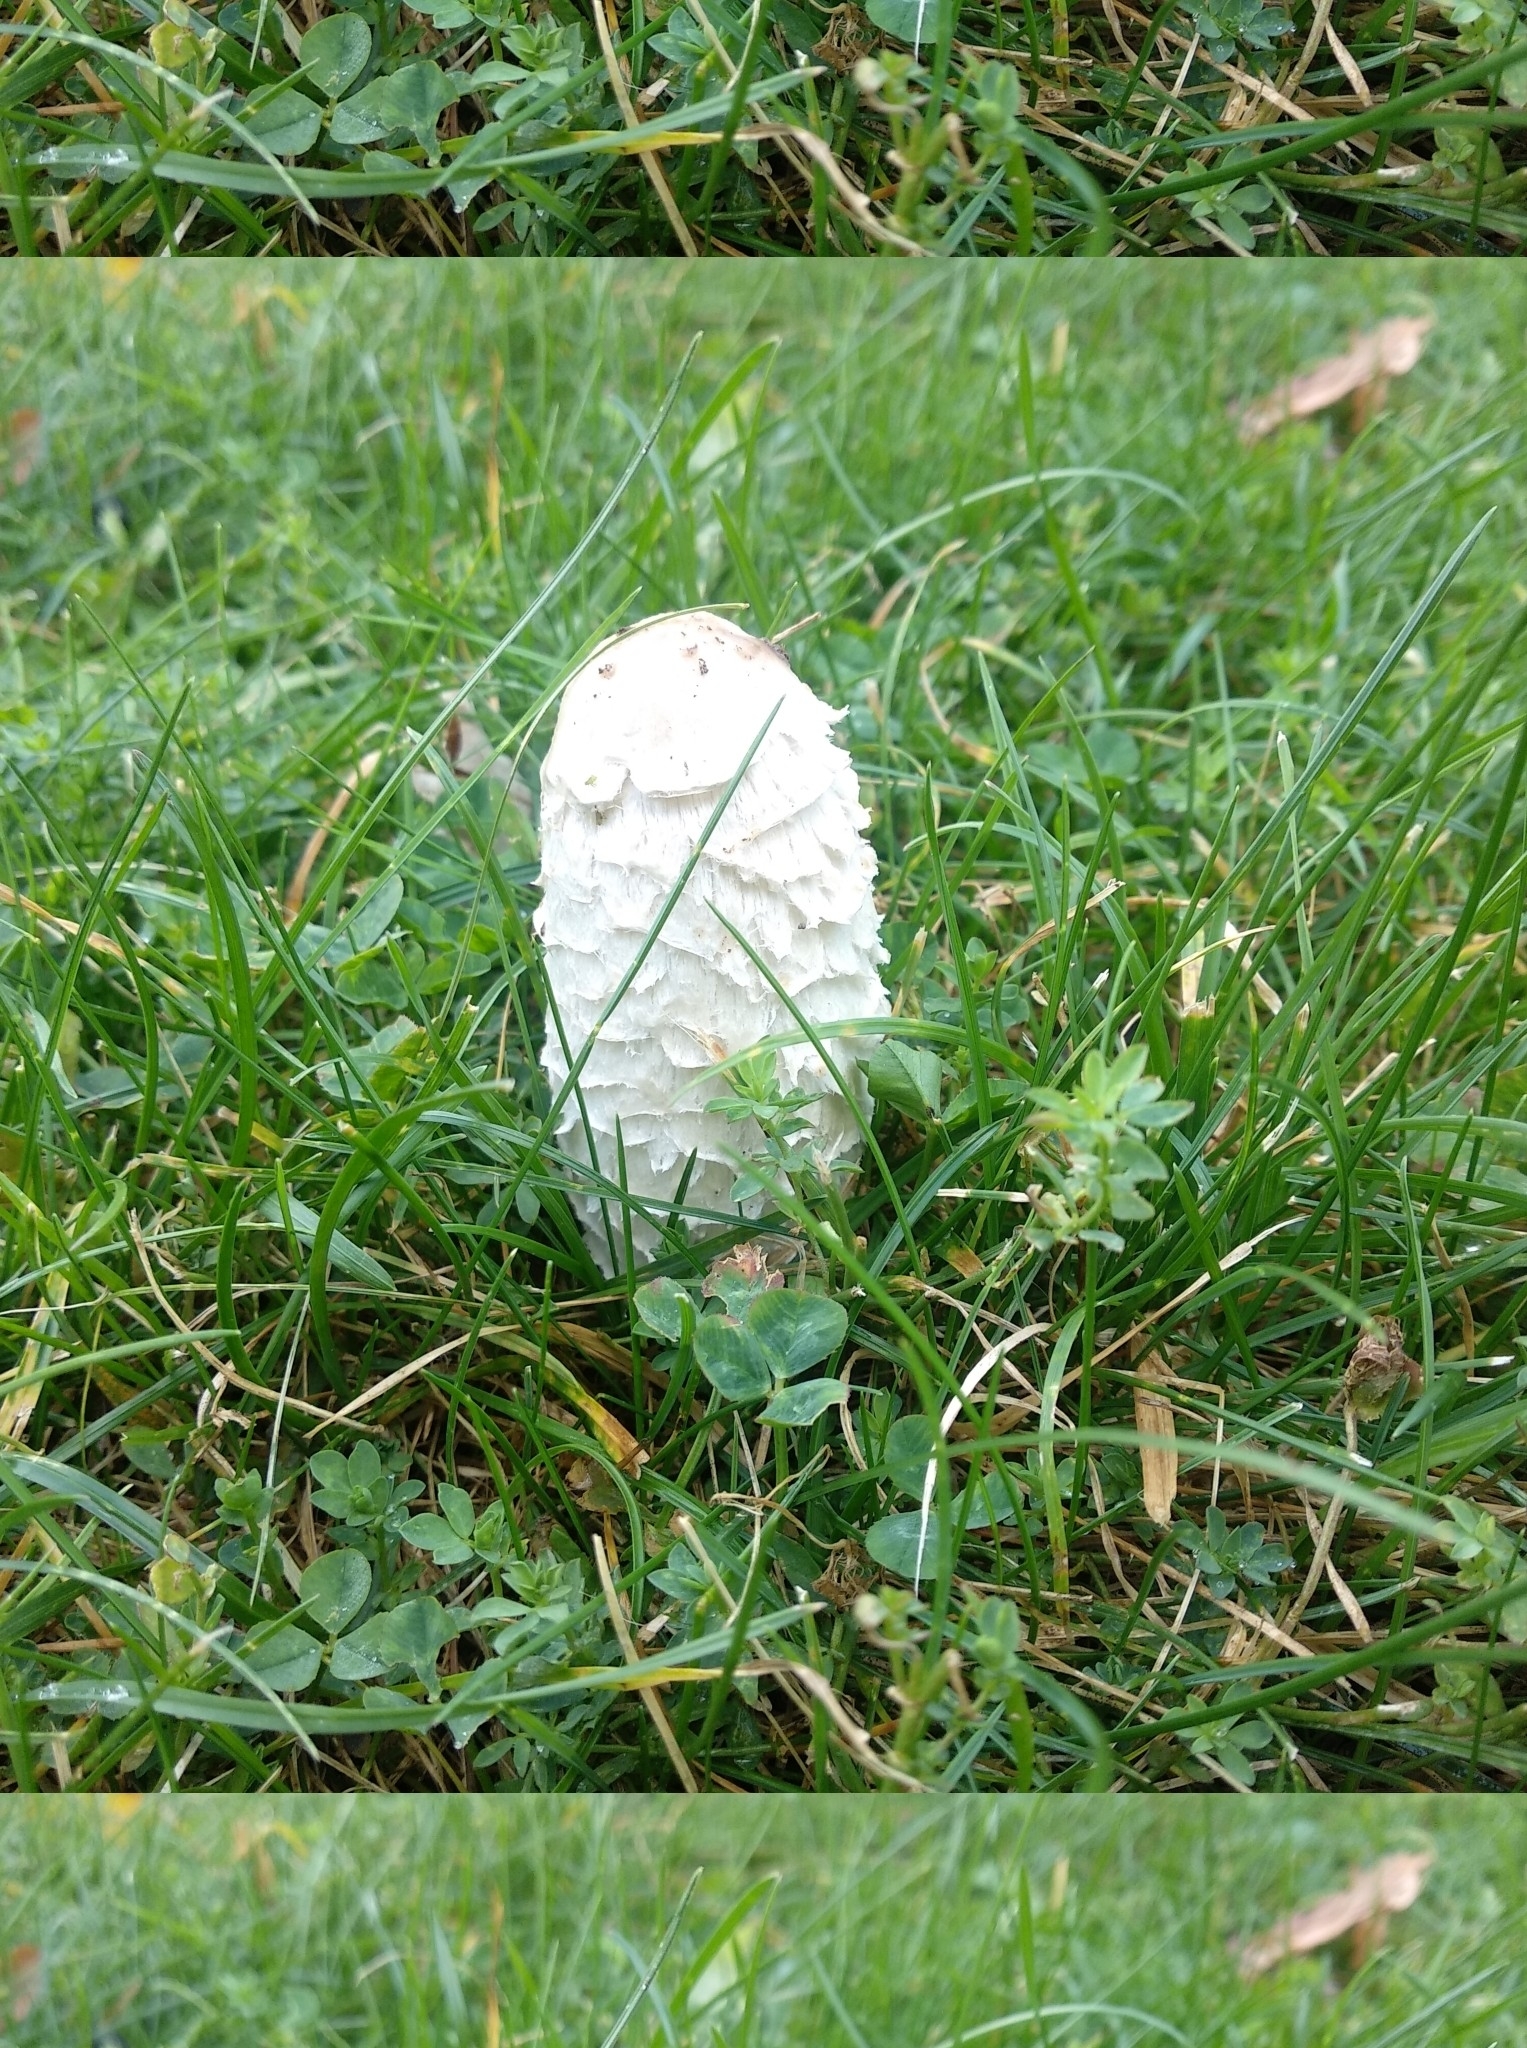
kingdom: Fungi
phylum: Basidiomycota
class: Agaricomycetes
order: Agaricales
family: Agaricaceae
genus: Coprinus
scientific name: Coprinus comatus
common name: Lawyer's wig
